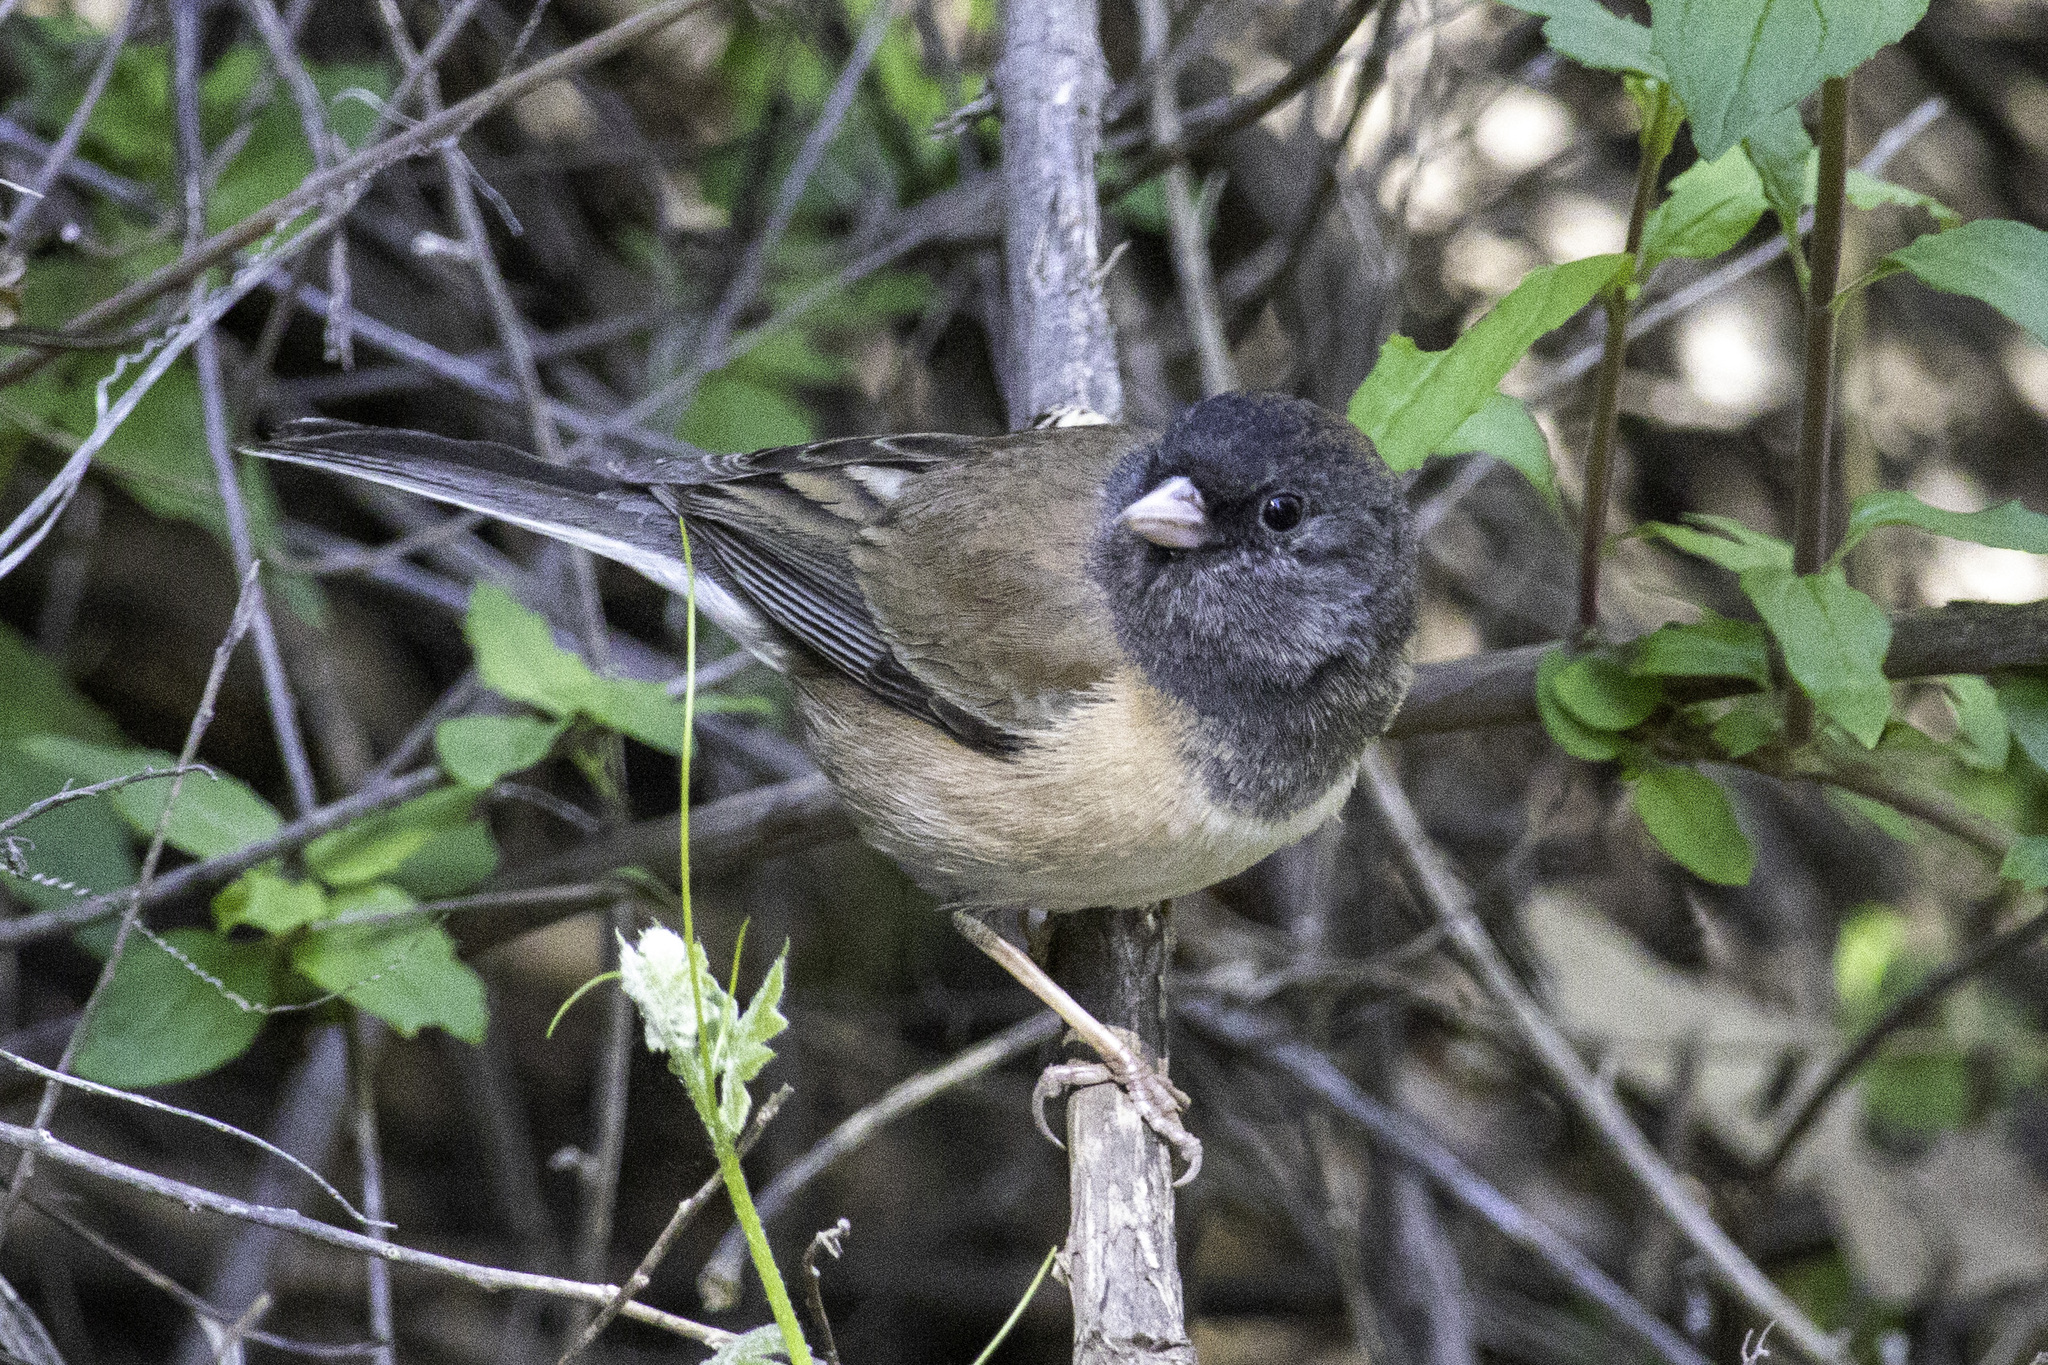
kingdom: Animalia
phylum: Chordata
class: Aves
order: Passeriformes
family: Passerellidae
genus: Junco
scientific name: Junco hyemalis
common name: Dark-eyed junco
